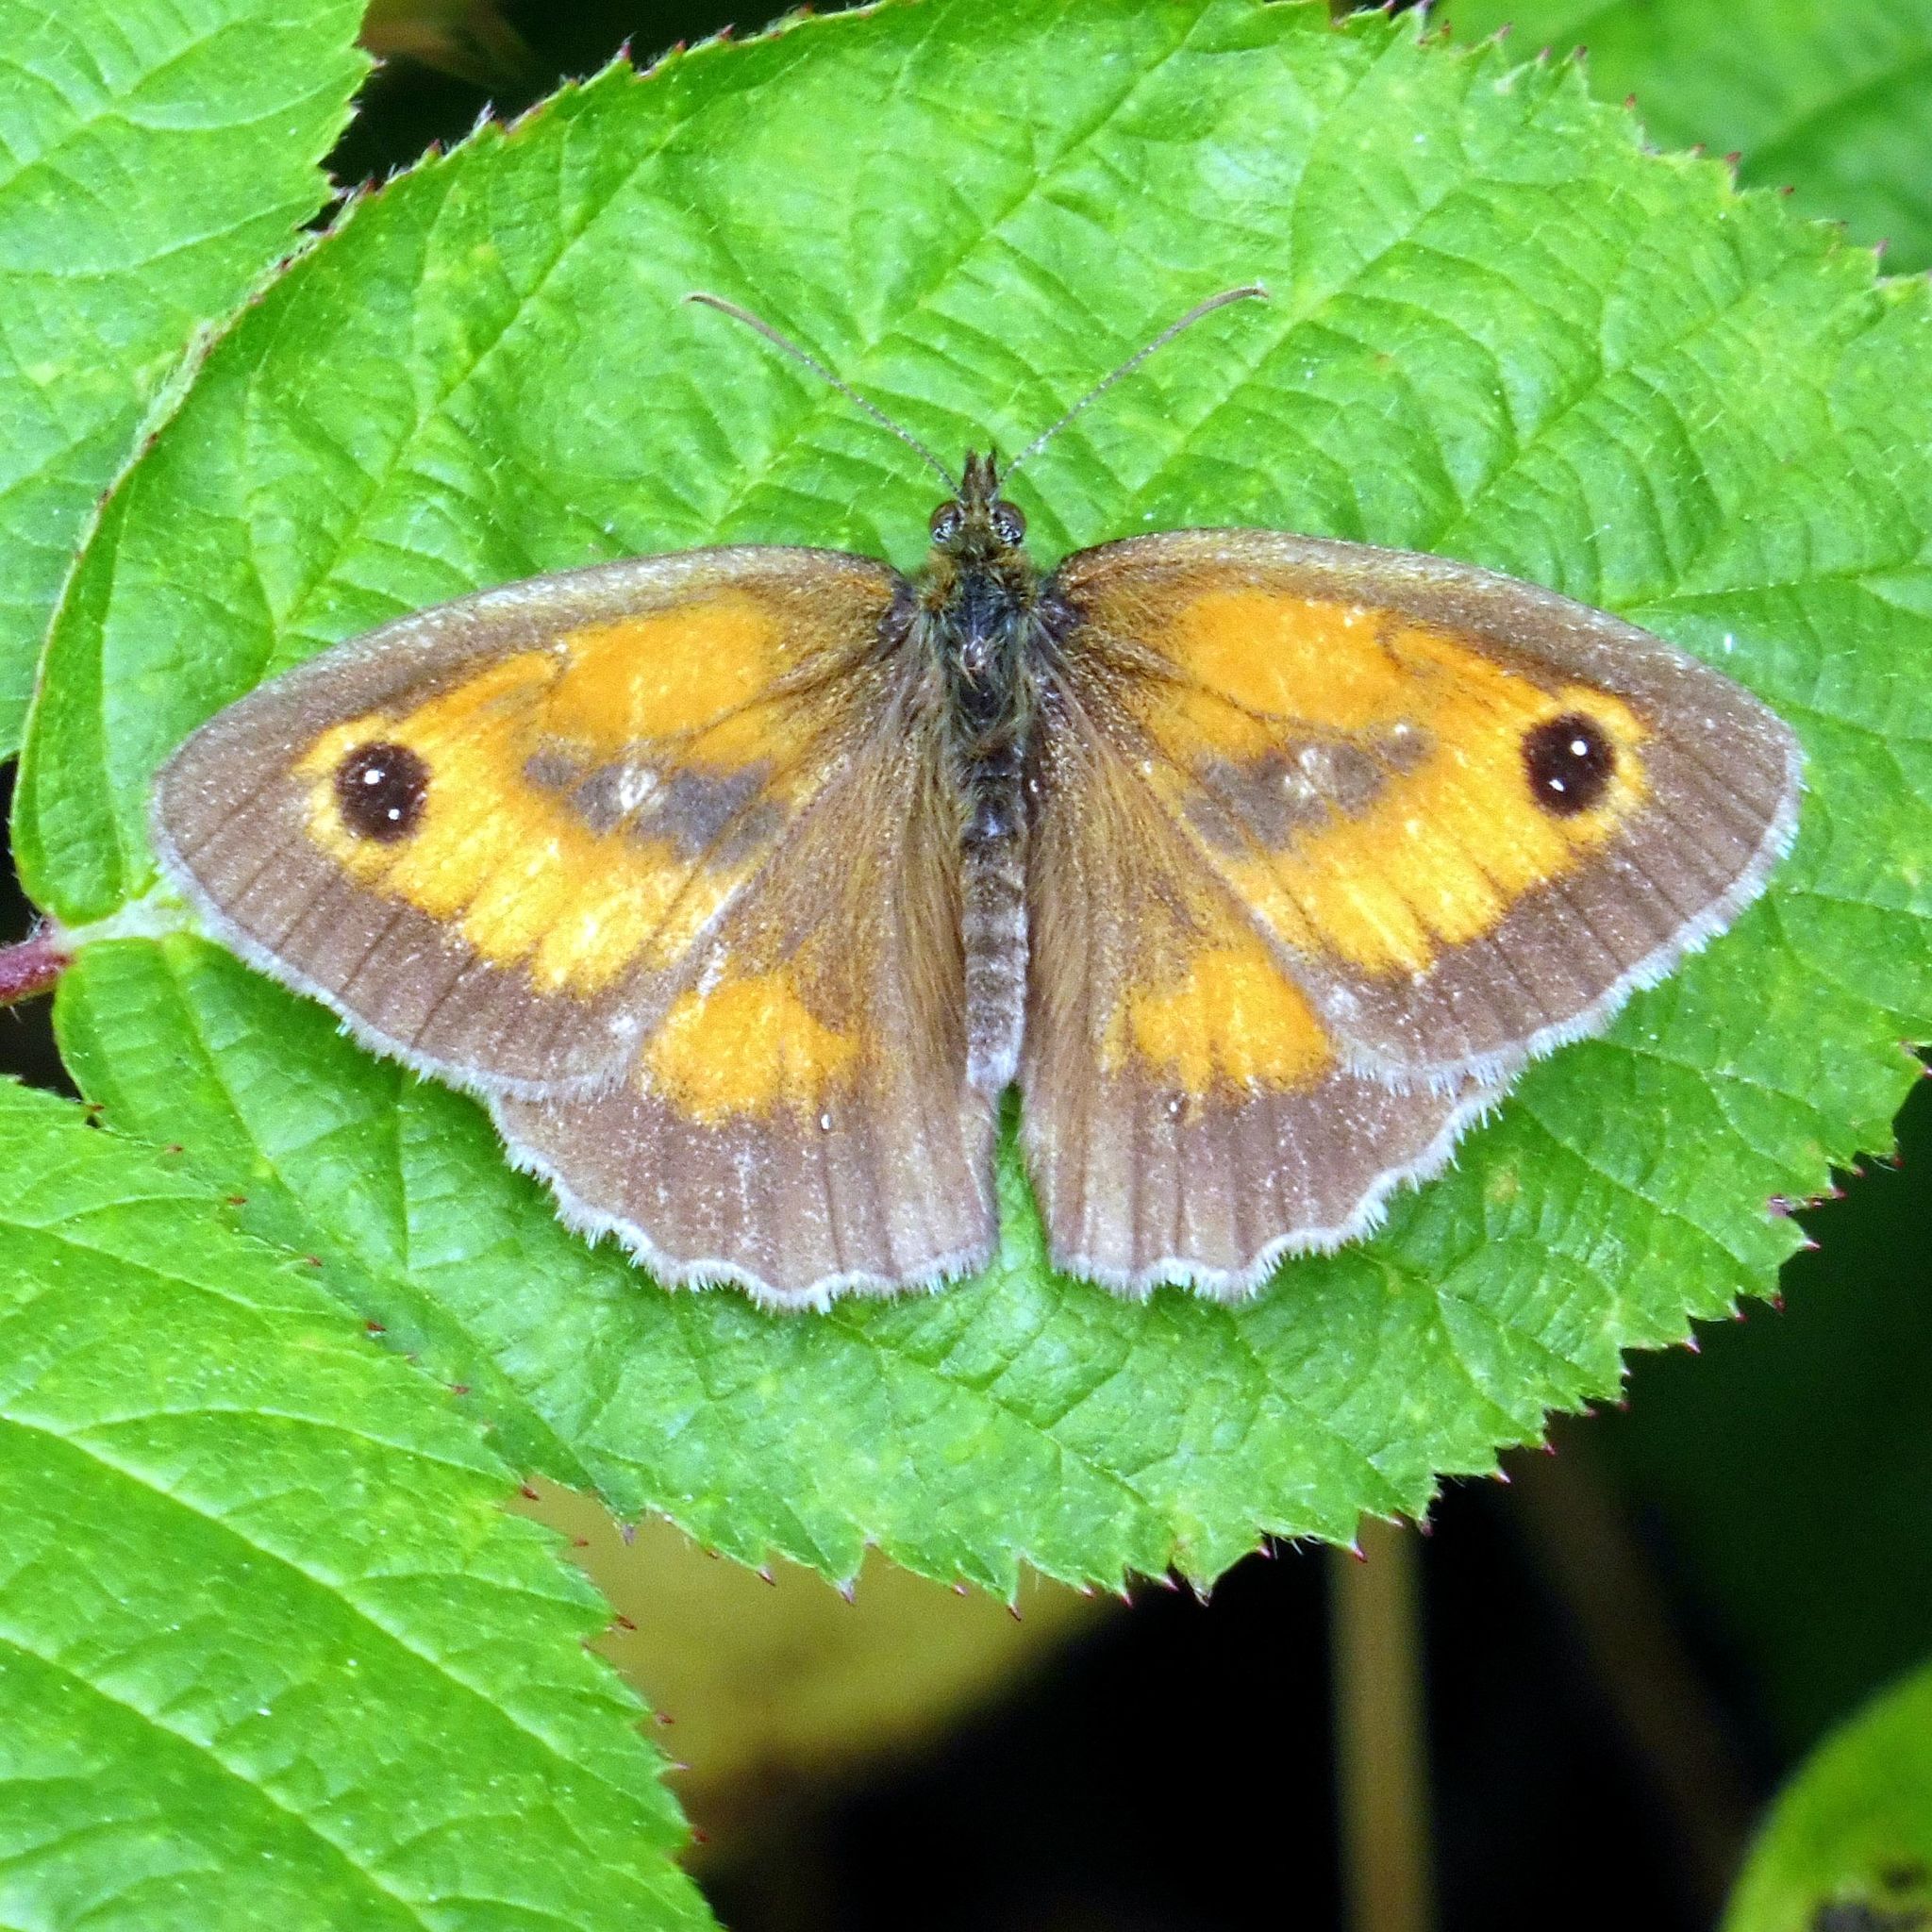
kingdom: Animalia
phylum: Arthropoda
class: Insecta
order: Lepidoptera
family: Nymphalidae
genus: Pyronia
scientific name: Pyronia tithonus
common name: Gatekeeper
